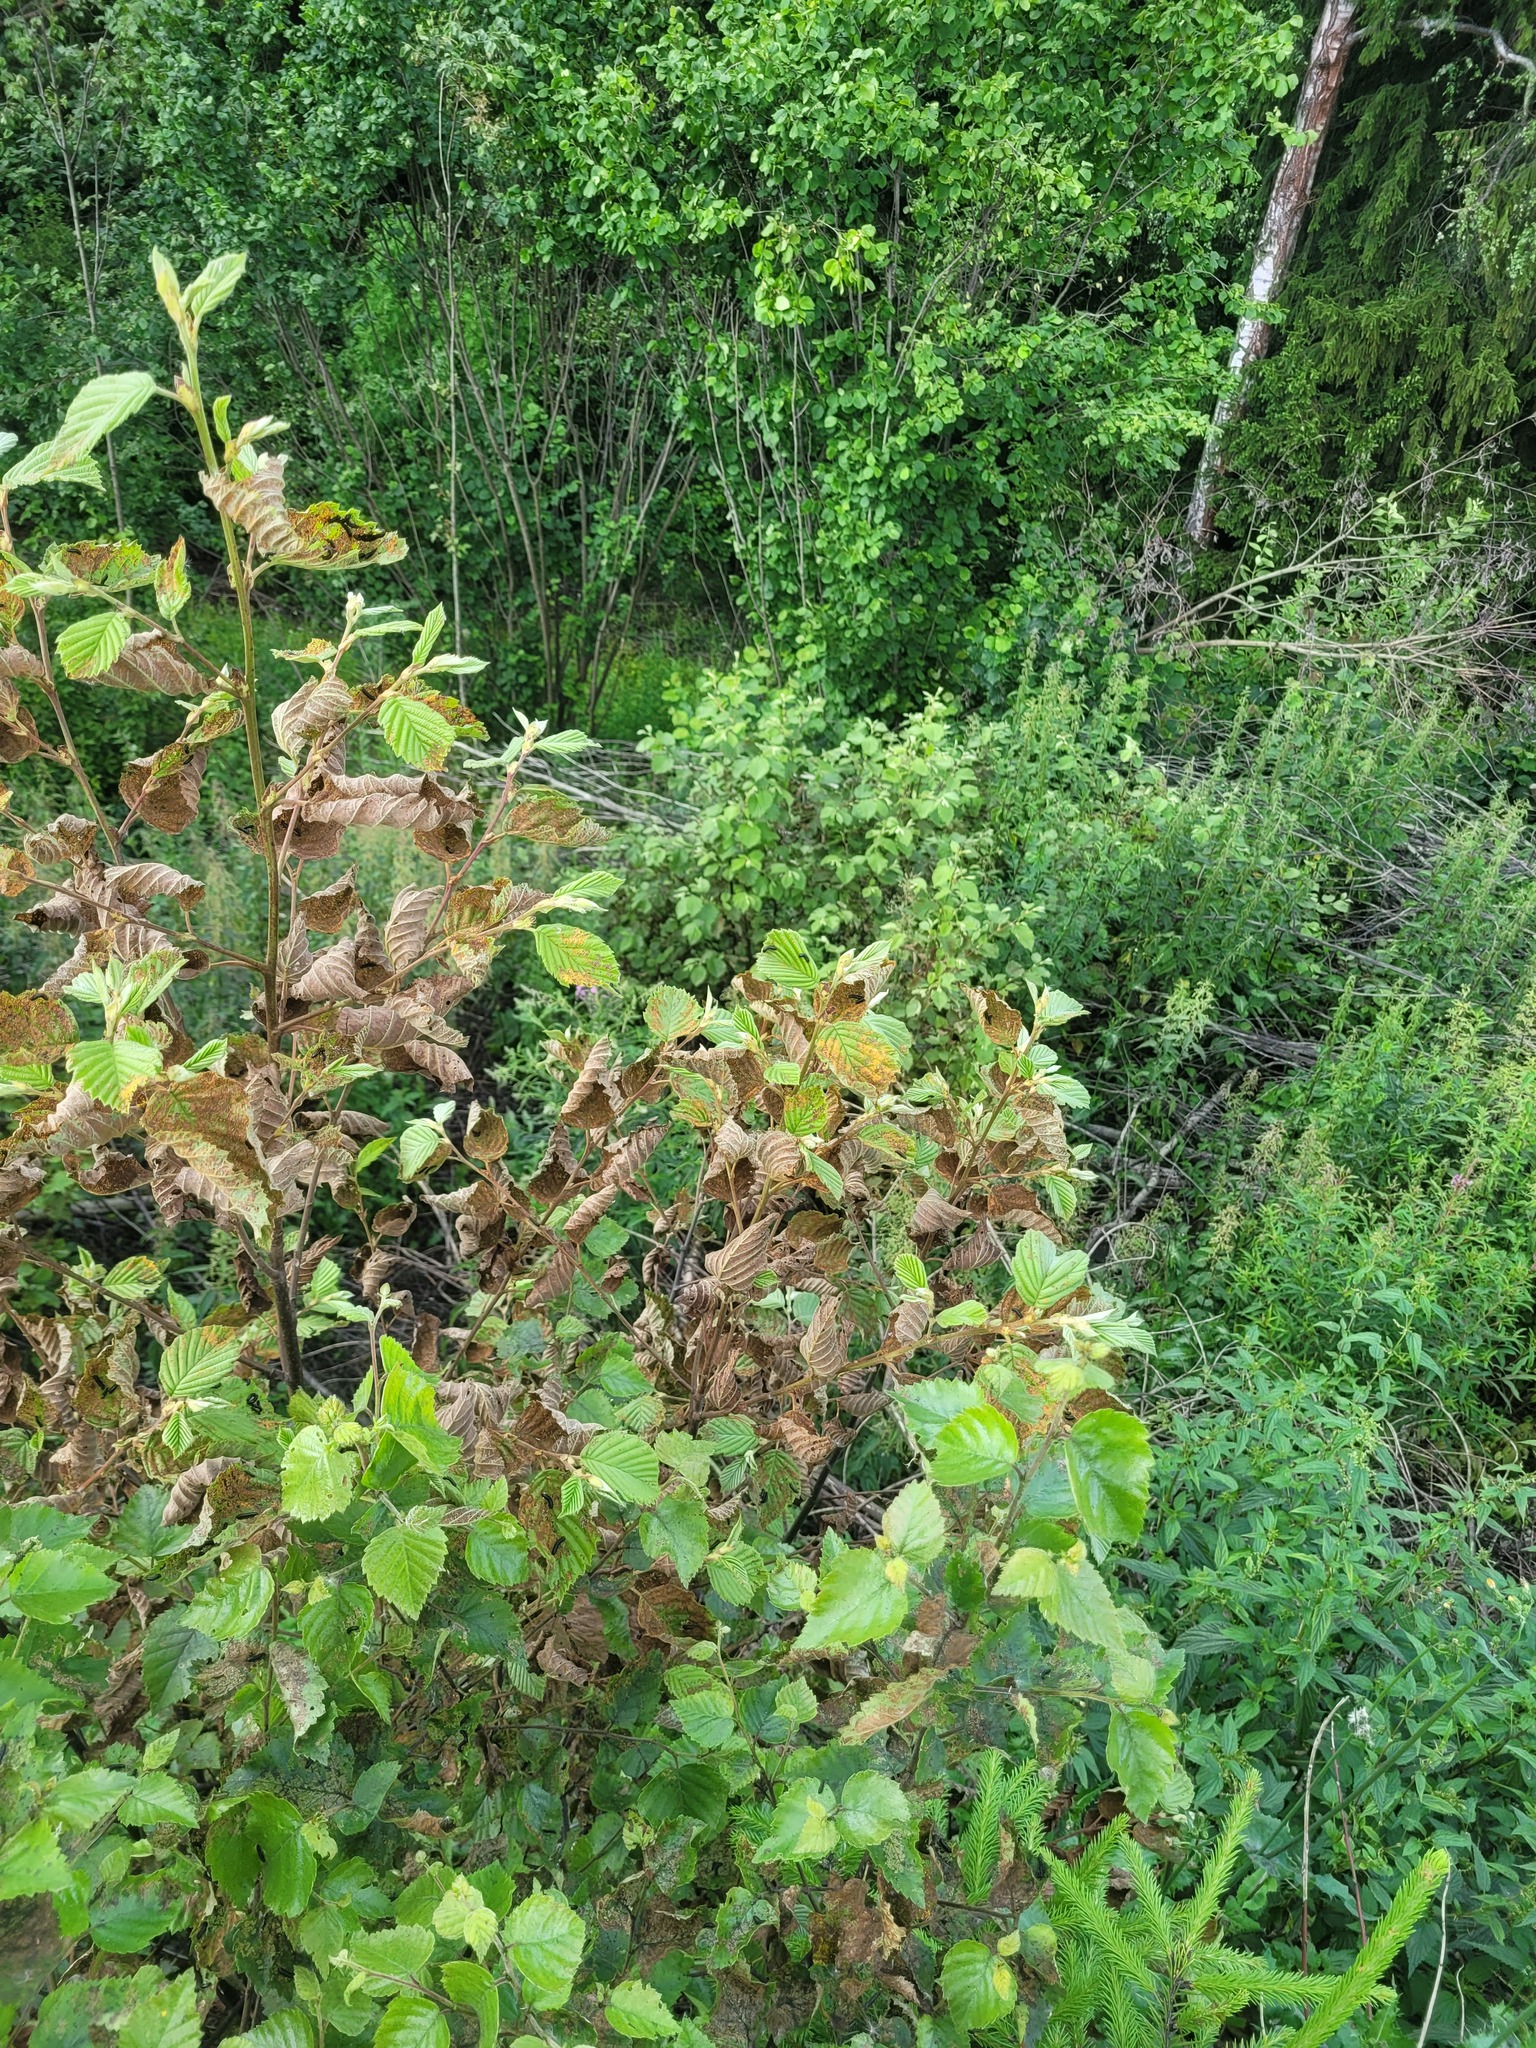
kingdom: Plantae
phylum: Tracheophyta
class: Magnoliopsida
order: Fagales
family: Betulaceae
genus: Alnus
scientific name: Alnus incana
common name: Grey alder
